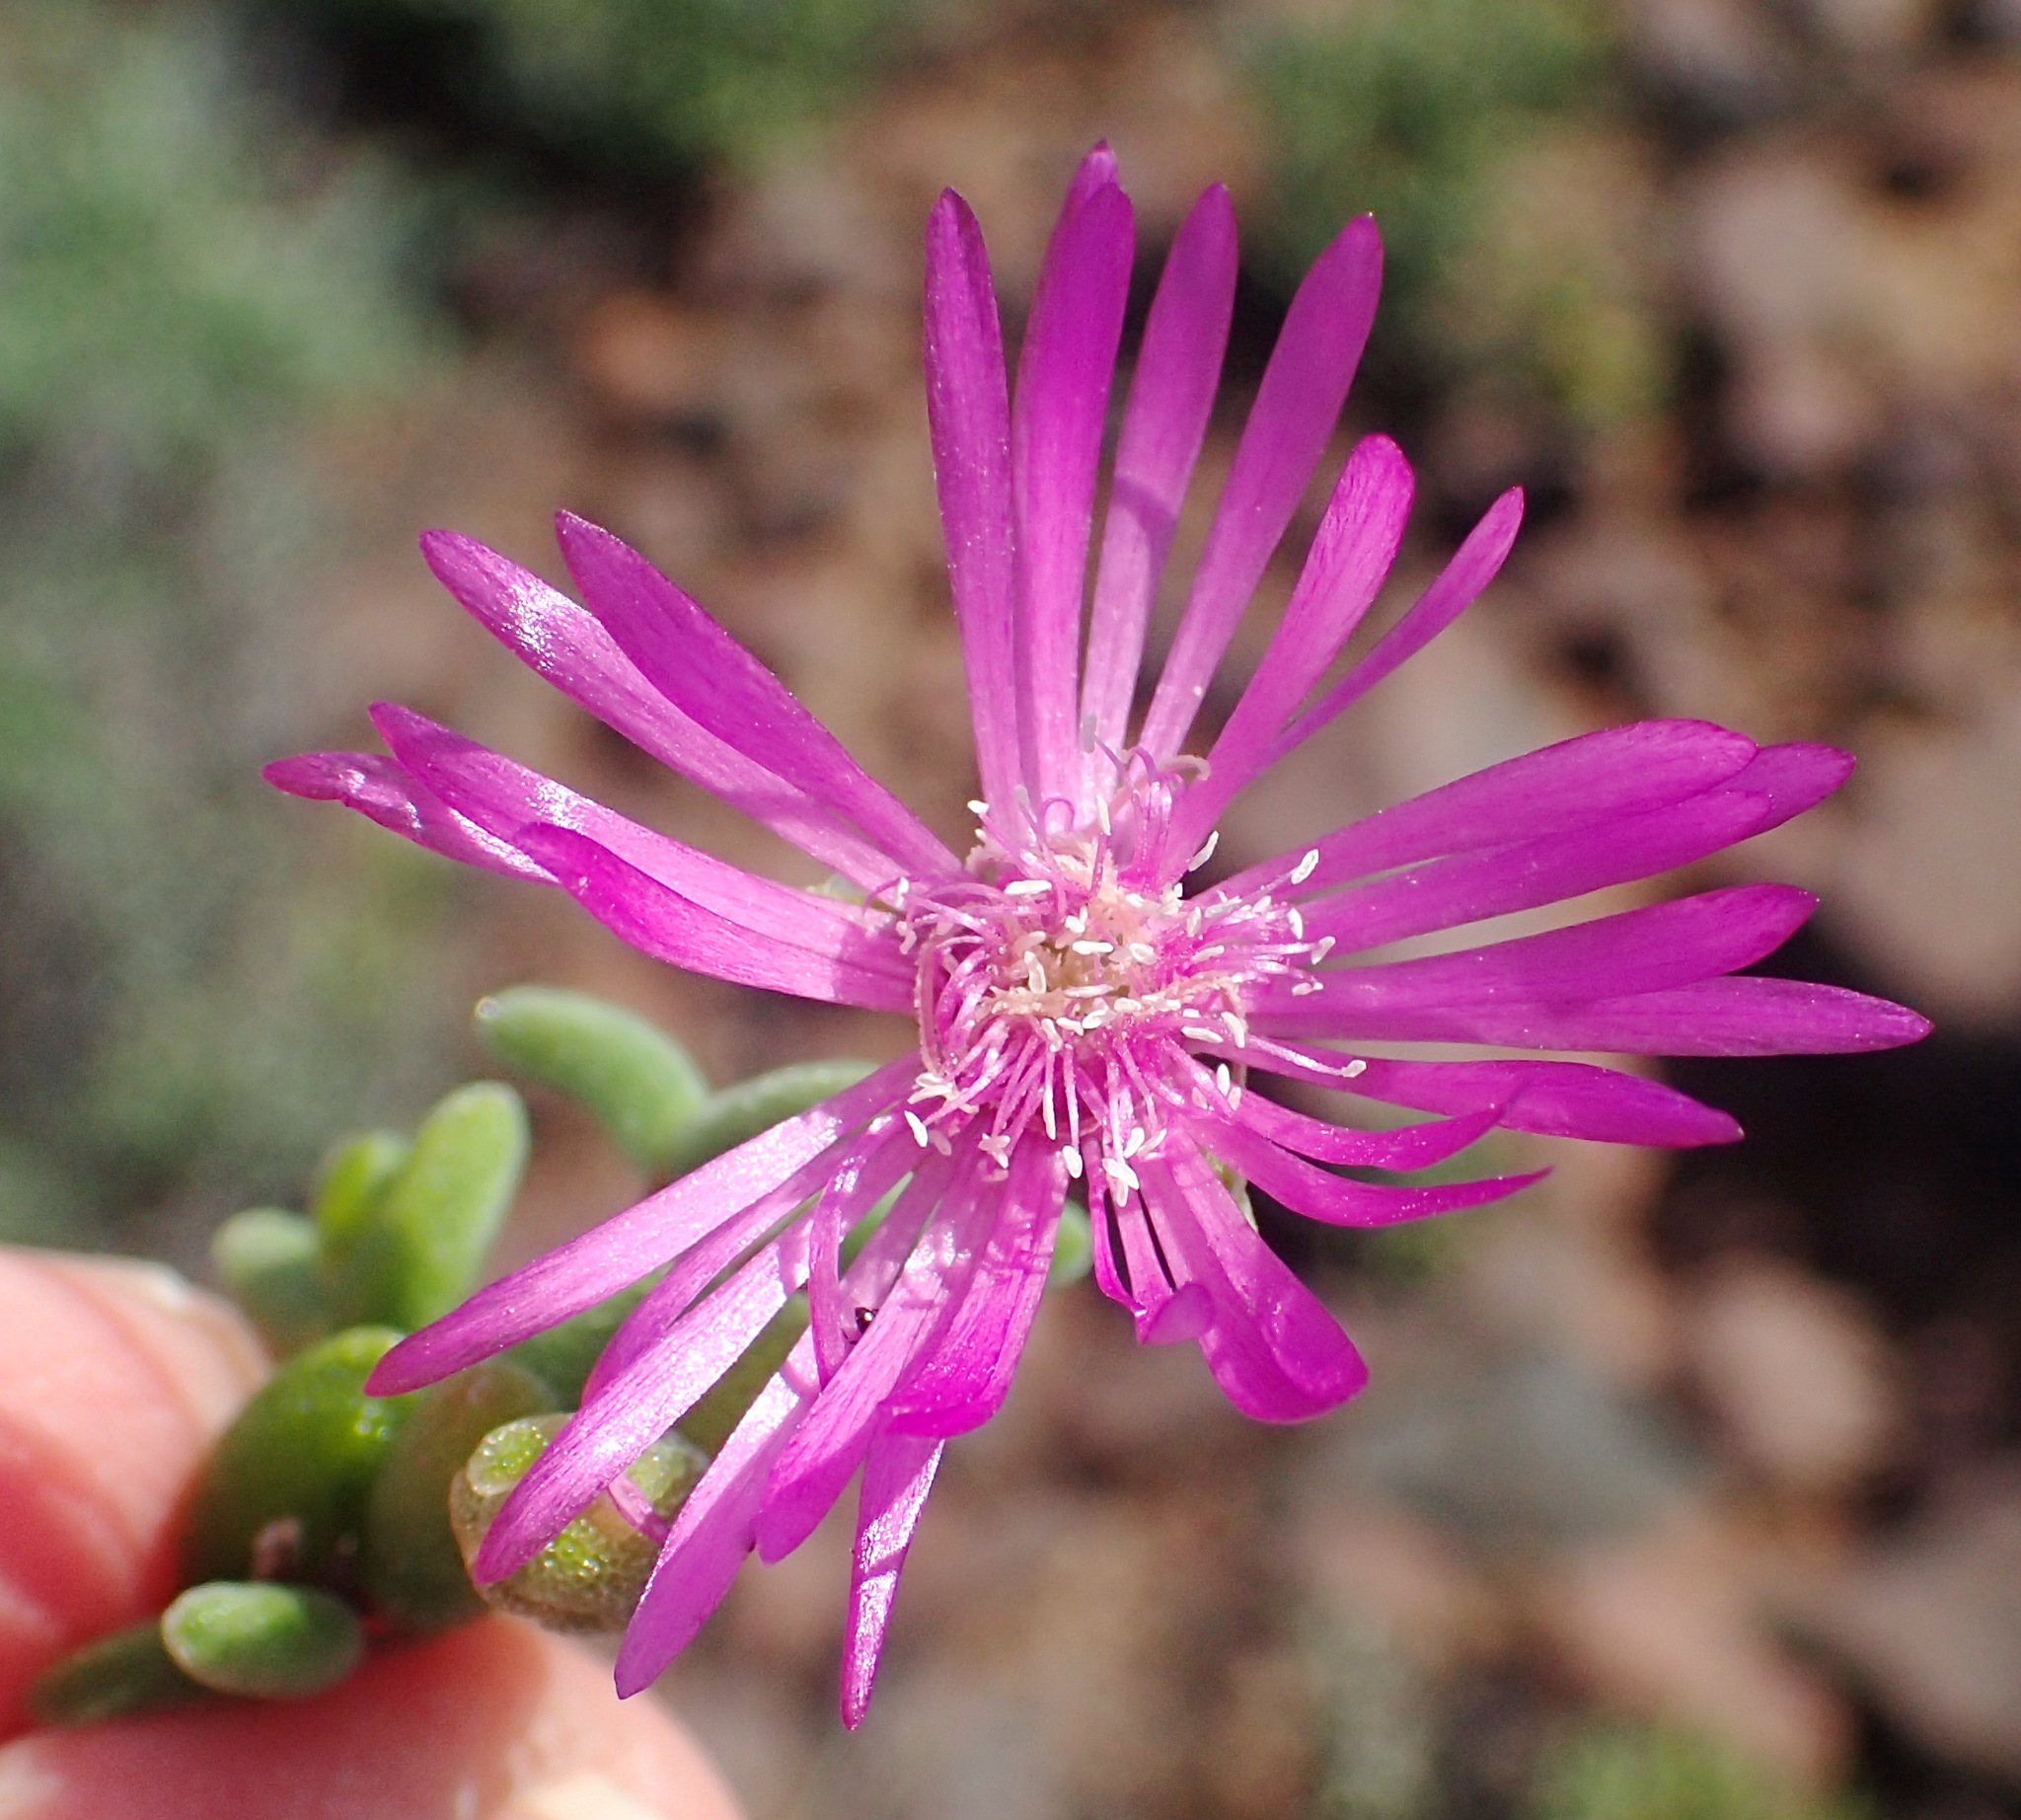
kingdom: Plantae
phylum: Tracheophyta
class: Magnoliopsida
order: Caryophyllales
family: Aizoaceae
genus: Drosanthemum
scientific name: Drosanthemum lique
